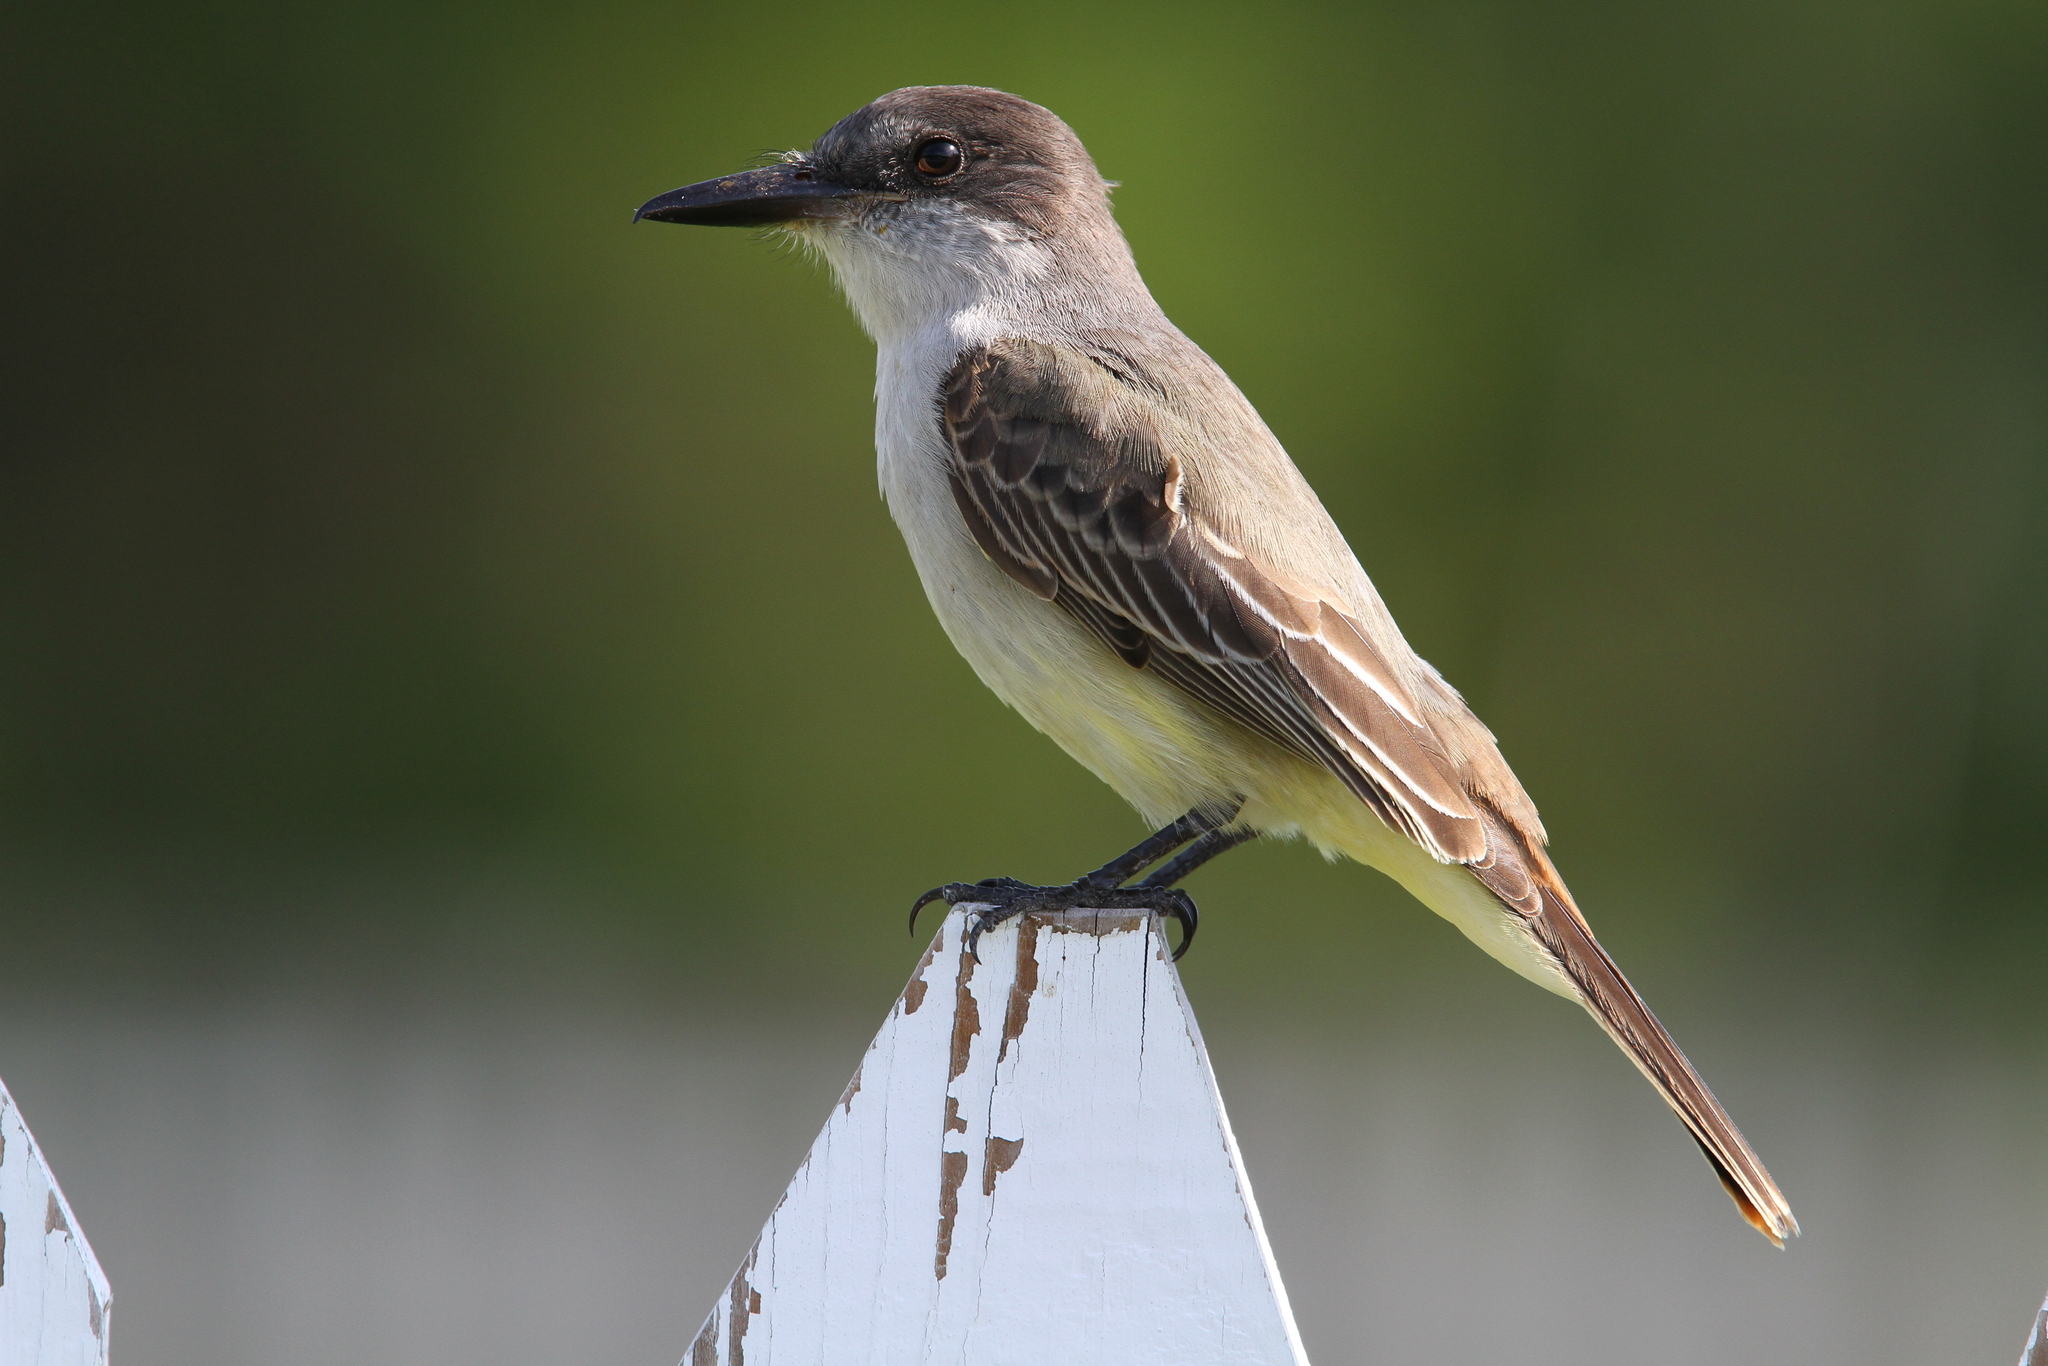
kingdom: Animalia
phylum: Chordata
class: Aves
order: Passeriformes
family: Tyrannidae
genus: Tyrannus
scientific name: Tyrannus caudifasciatus
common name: Loggerhead kingbird
